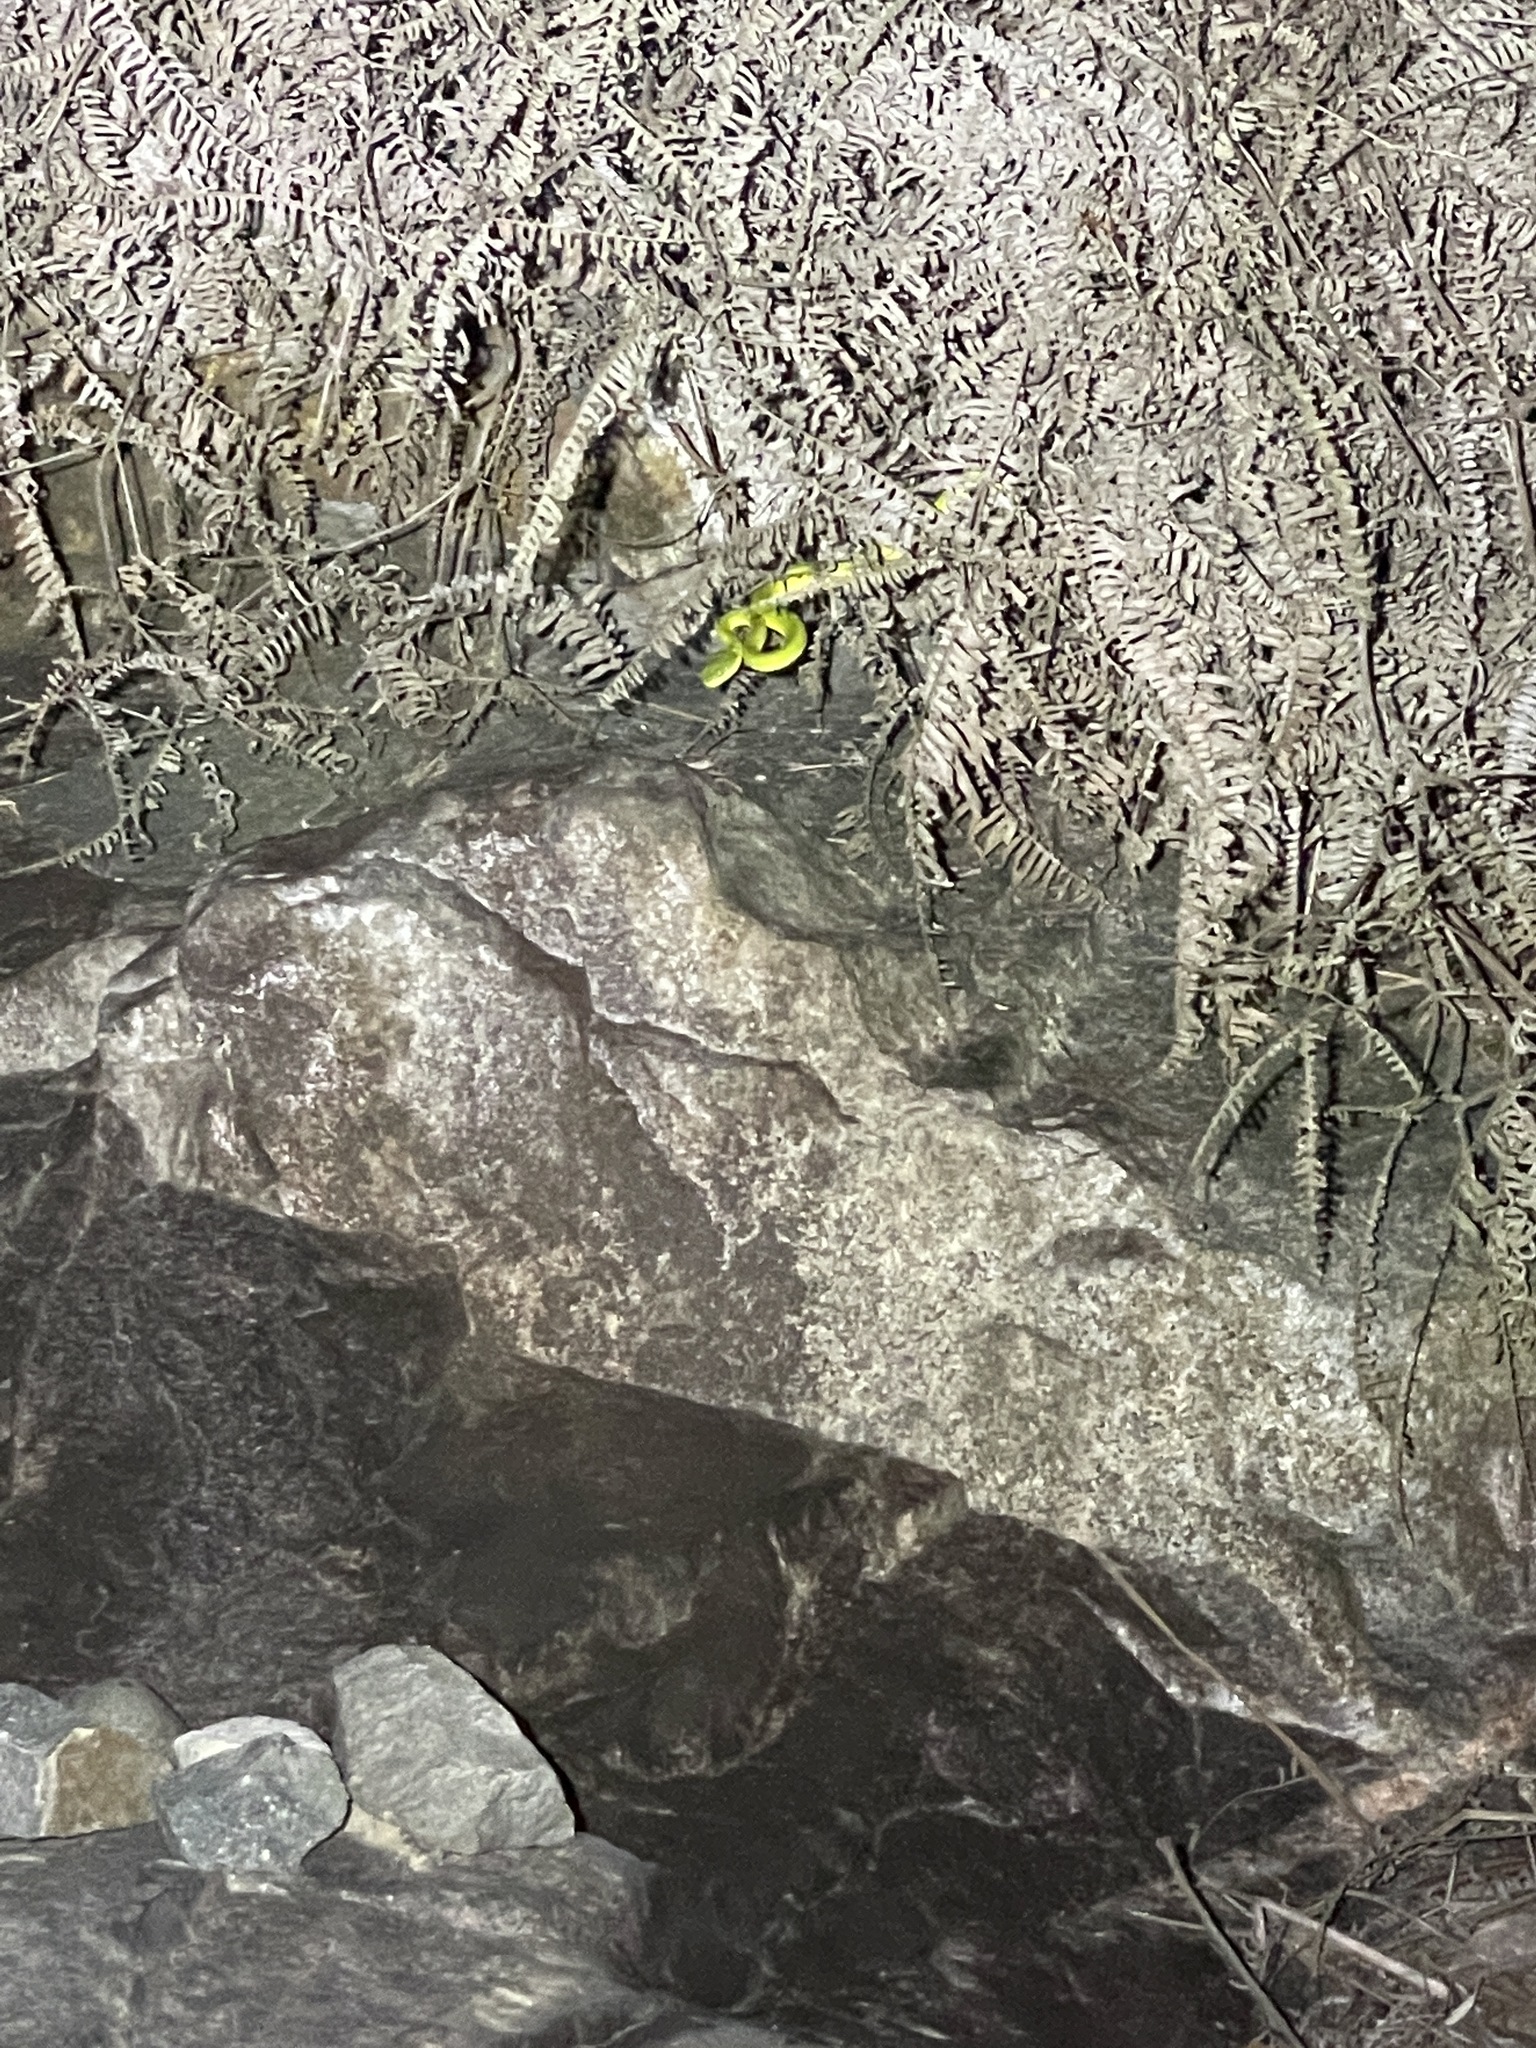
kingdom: Animalia
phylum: Chordata
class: Squamata
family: Viperidae
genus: Trimeresurus
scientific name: Trimeresurus albolabris
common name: White-lipped pitviper
